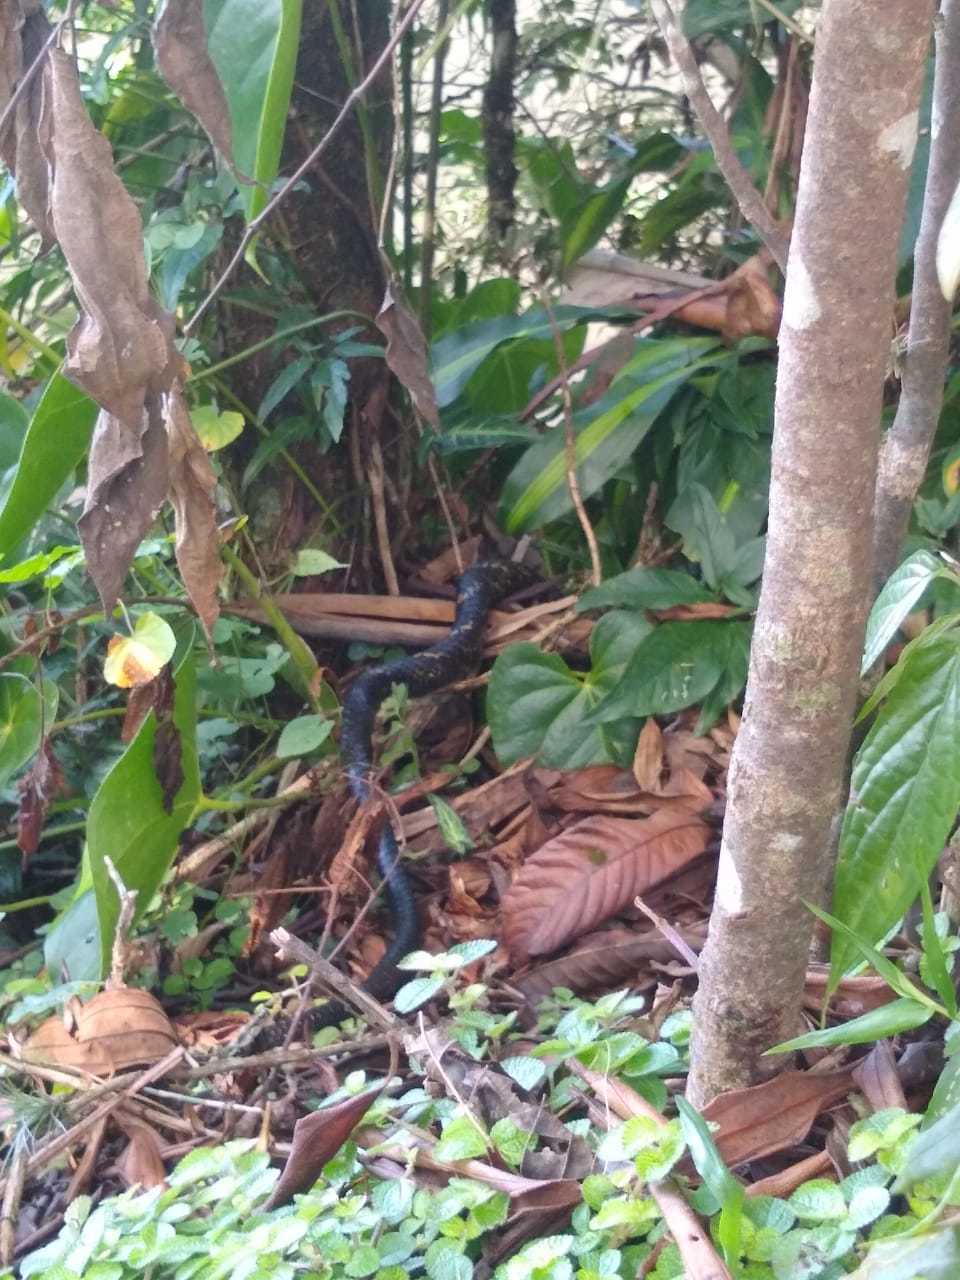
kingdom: Animalia
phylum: Chordata
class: Squamata
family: Colubridae
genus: Spilotes
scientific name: Spilotes pullatus
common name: Chicken snake
